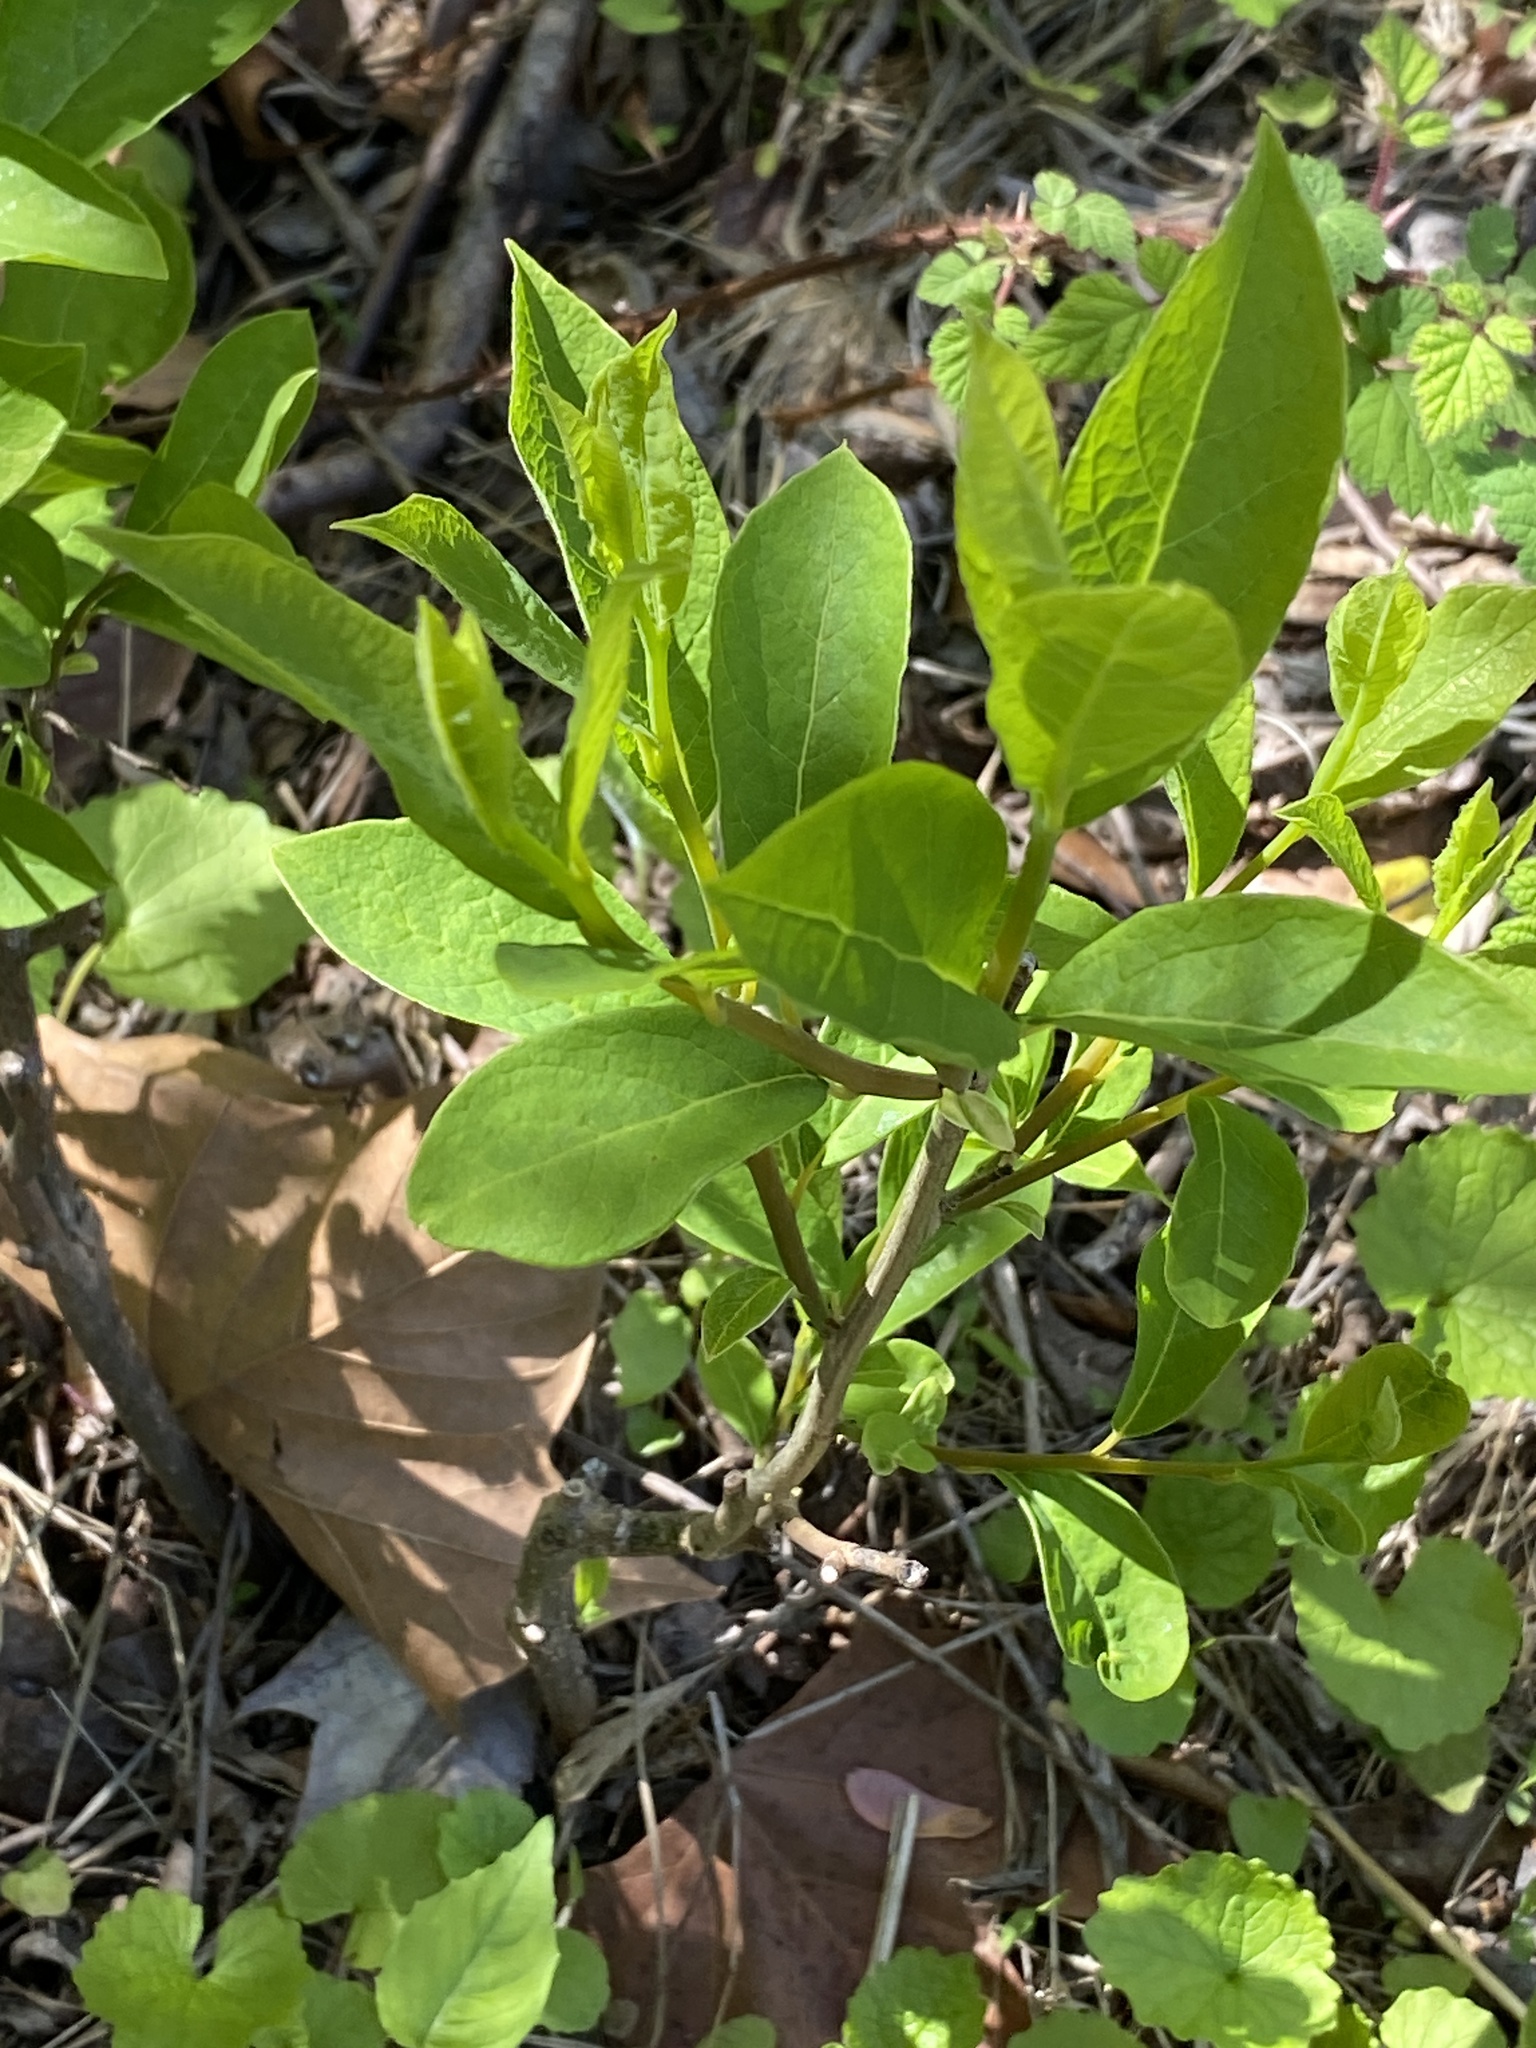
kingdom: Plantae
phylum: Tracheophyta
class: Magnoliopsida
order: Laurales
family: Lauraceae
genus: Lindera
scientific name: Lindera benzoin
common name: Spicebush
